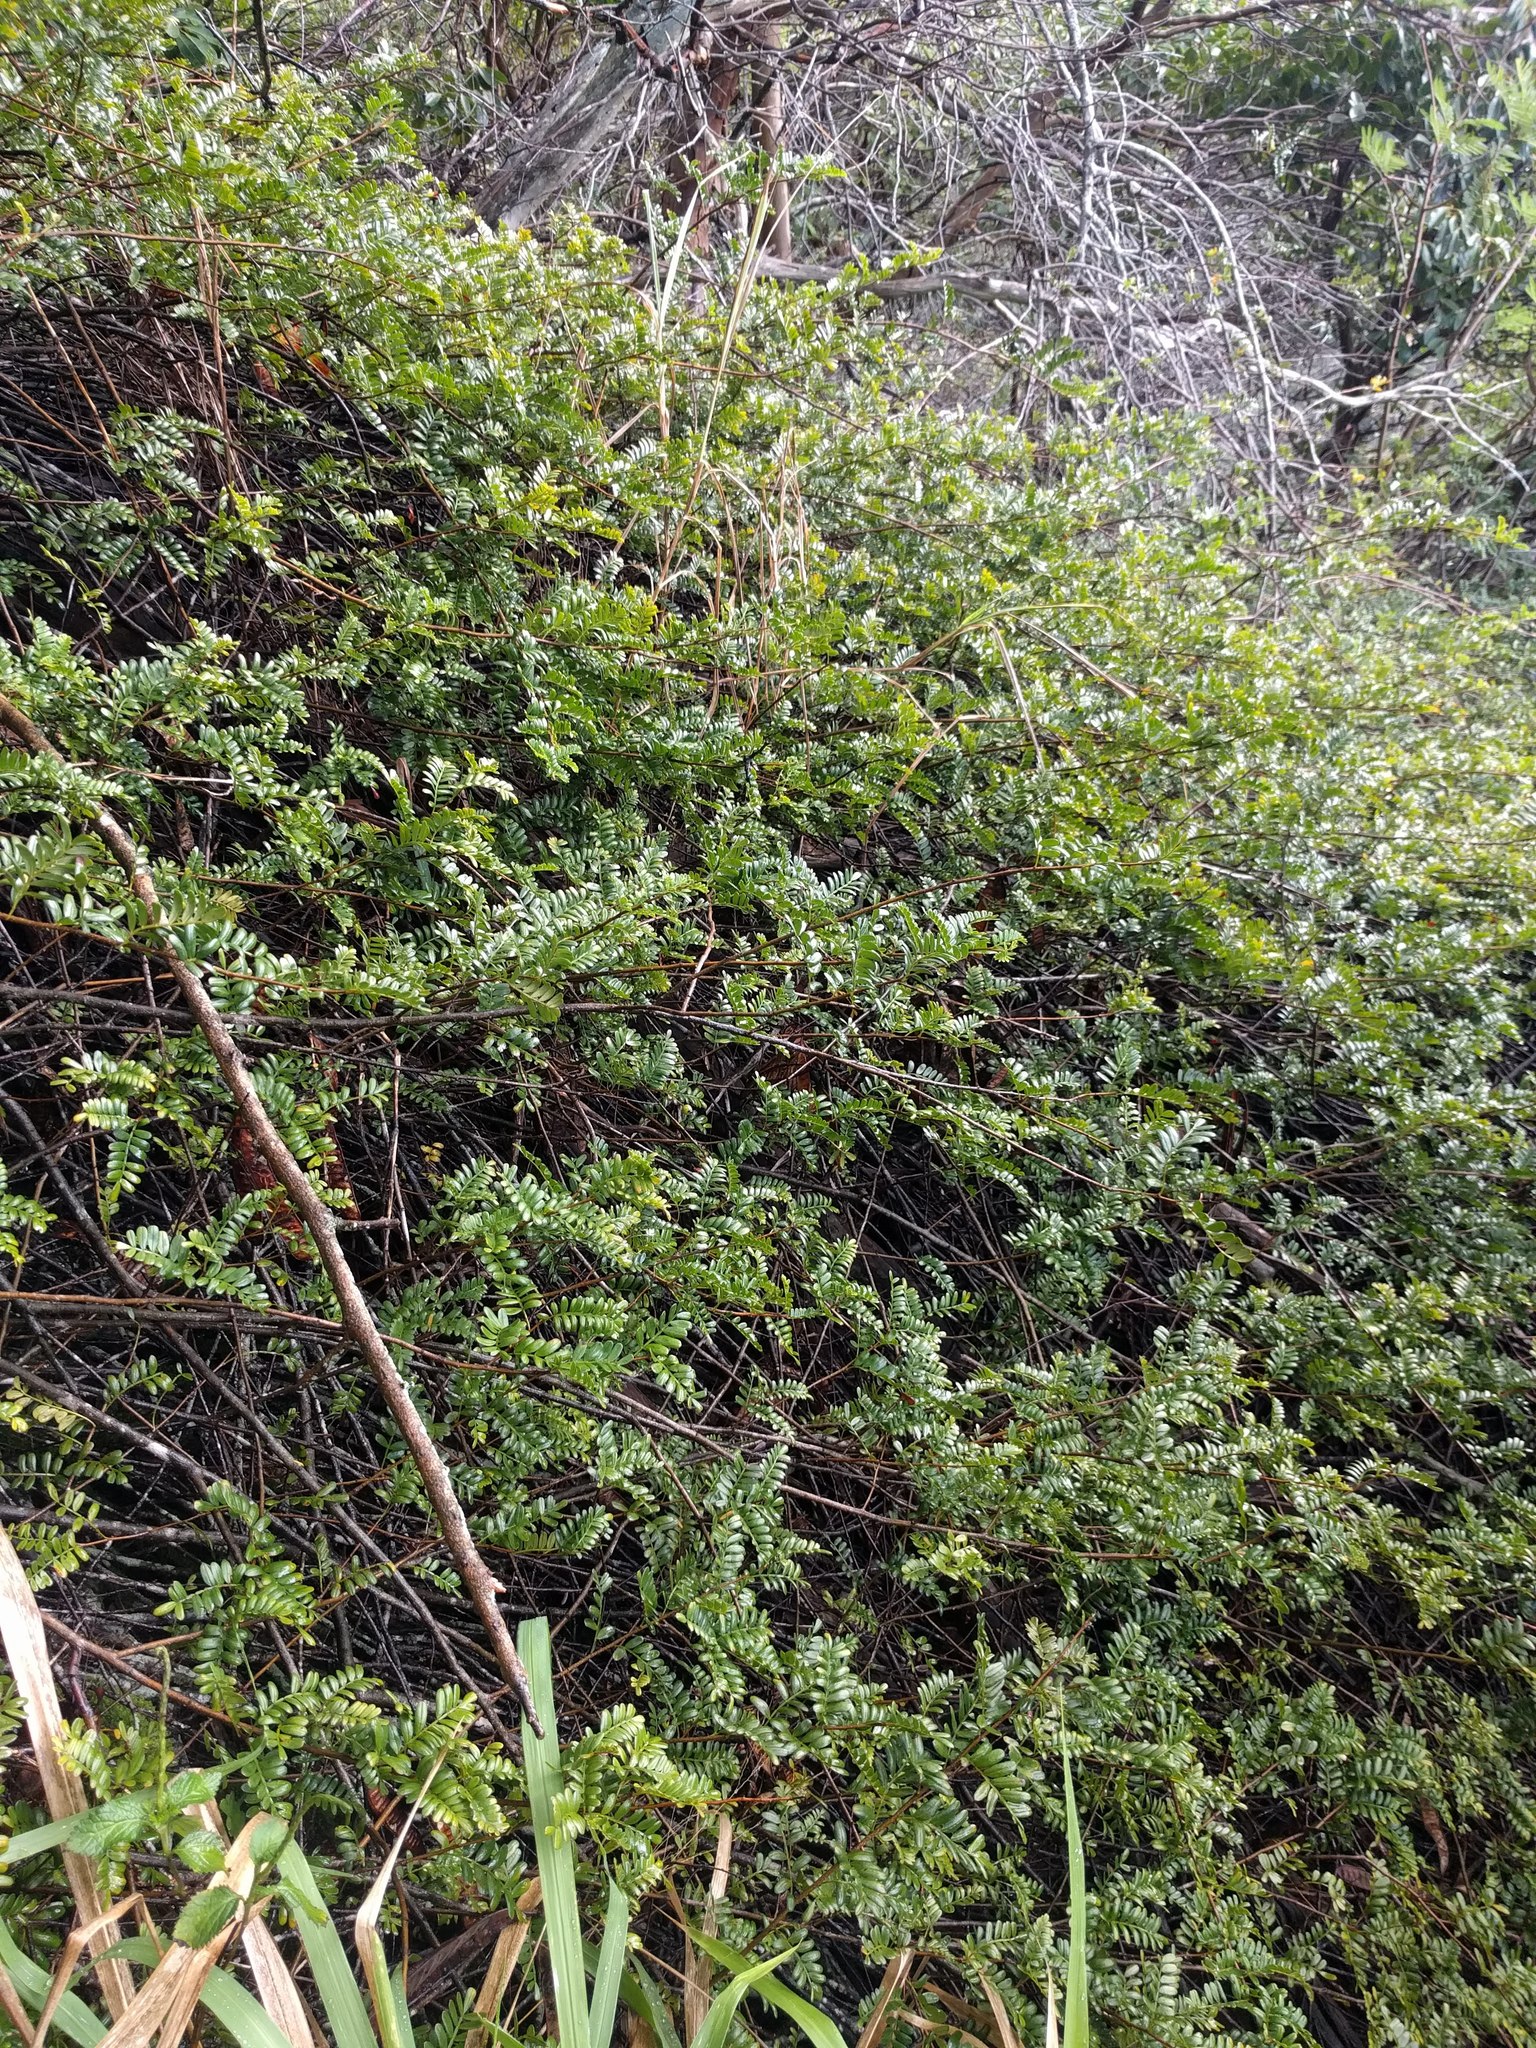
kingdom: Plantae
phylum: Tracheophyta
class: Magnoliopsida
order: Rosales
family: Rosaceae
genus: Osteomeles
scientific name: Osteomeles anthyllidifolia
